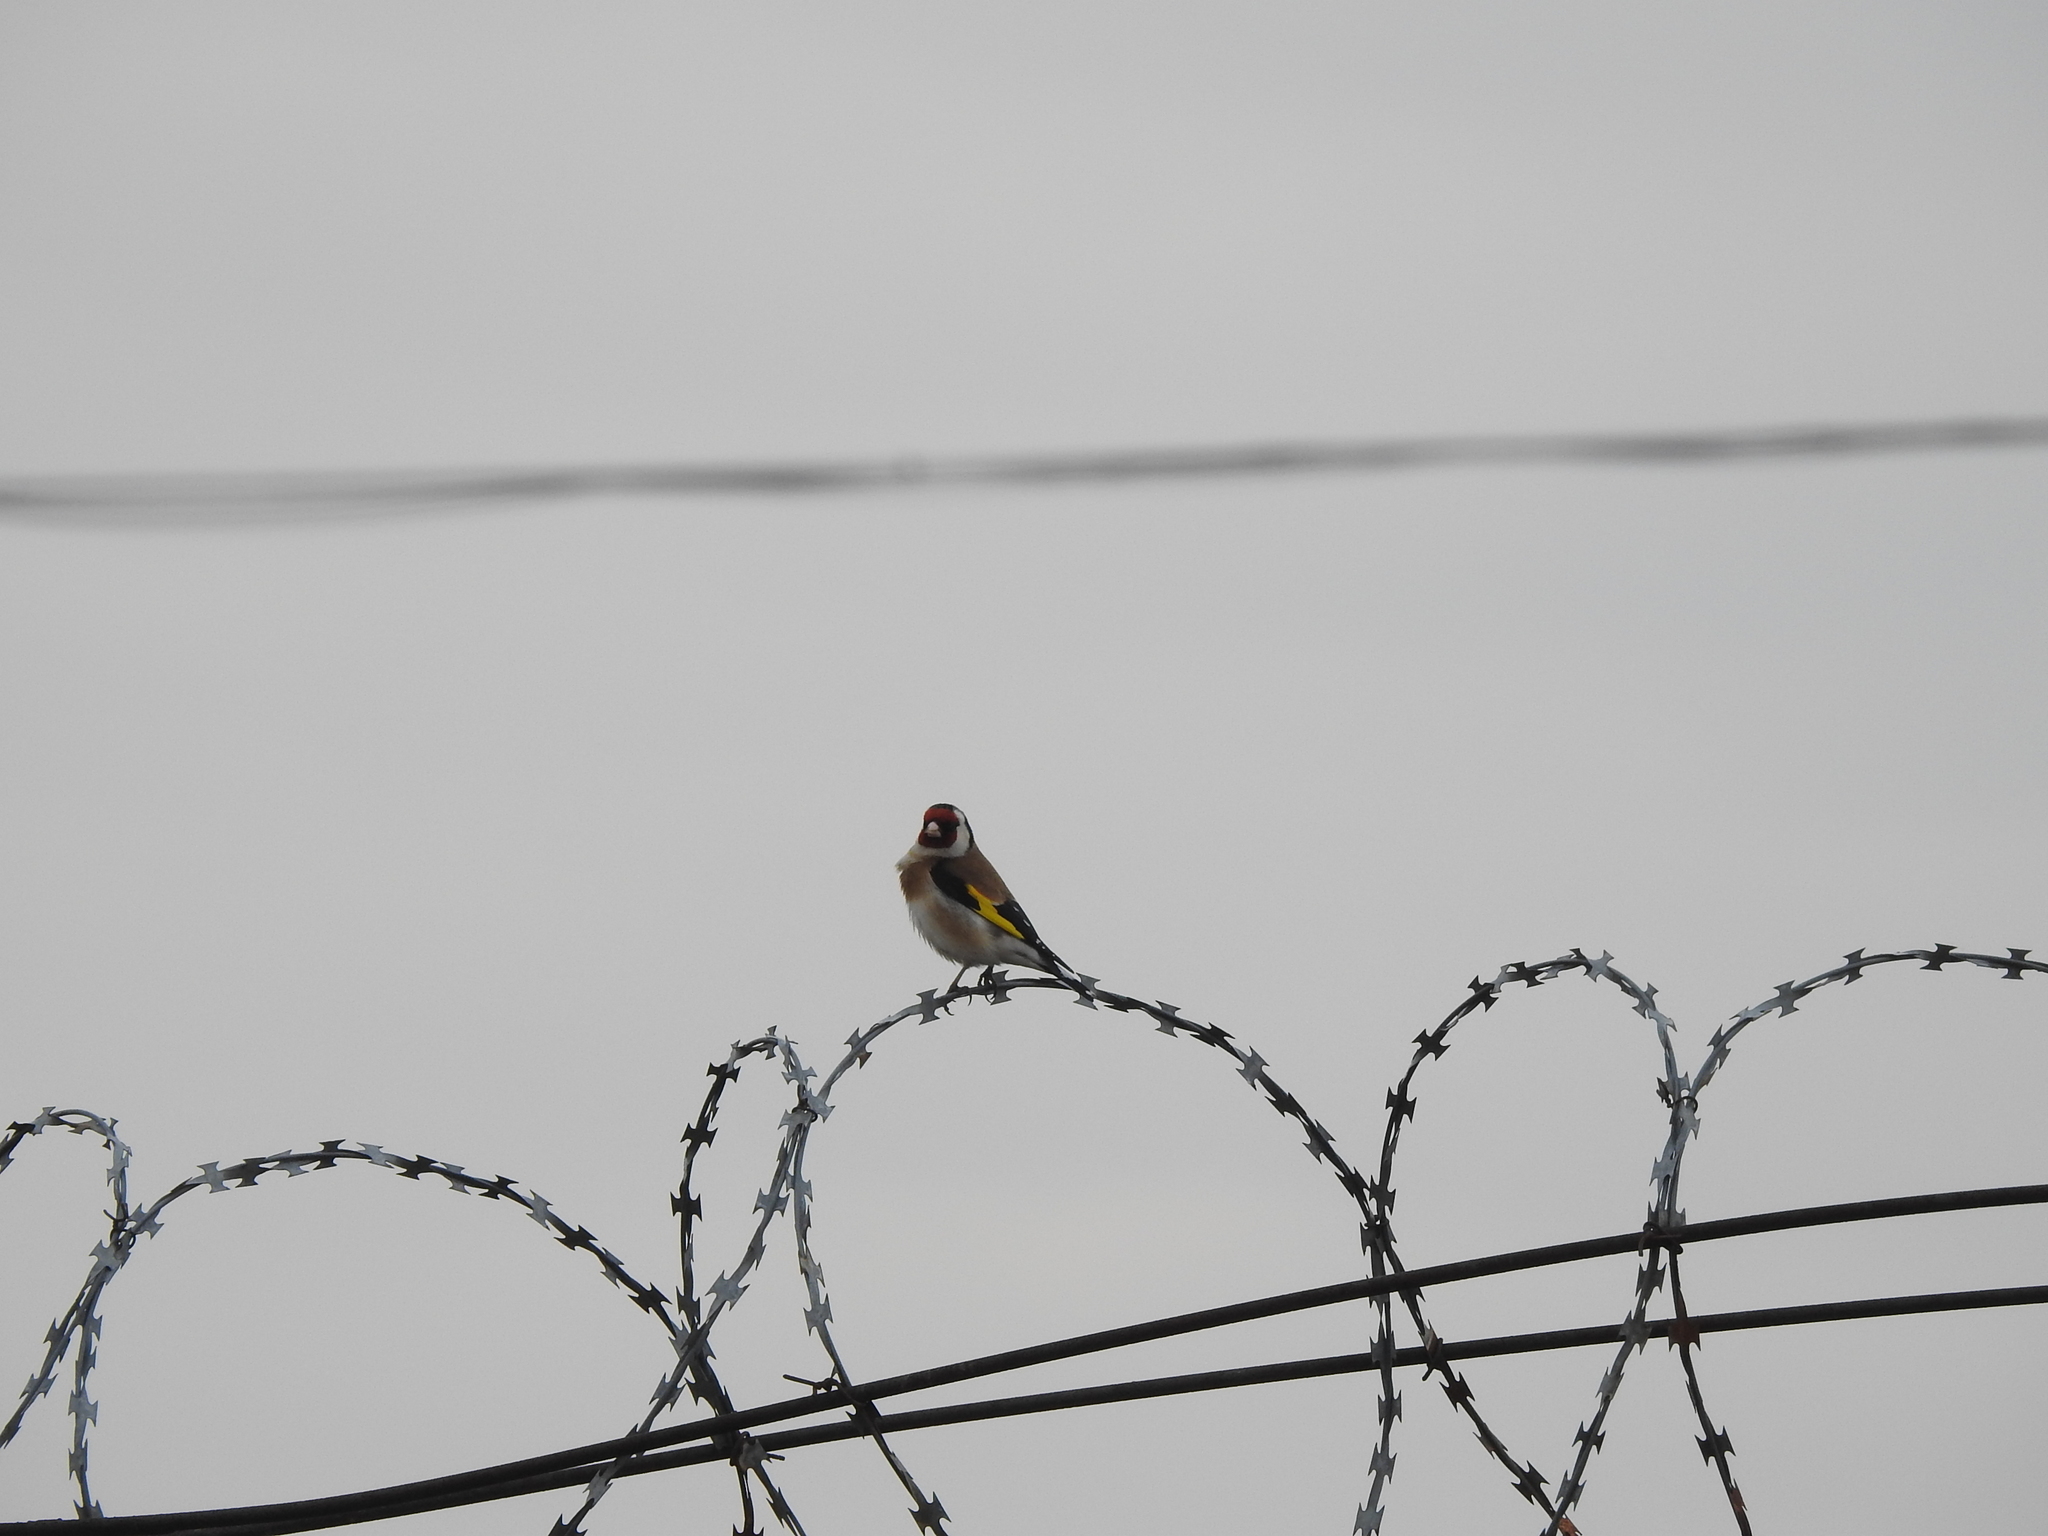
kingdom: Animalia
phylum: Chordata
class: Aves
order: Passeriformes
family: Fringillidae
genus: Carduelis
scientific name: Carduelis carduelis
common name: European goldfinch
